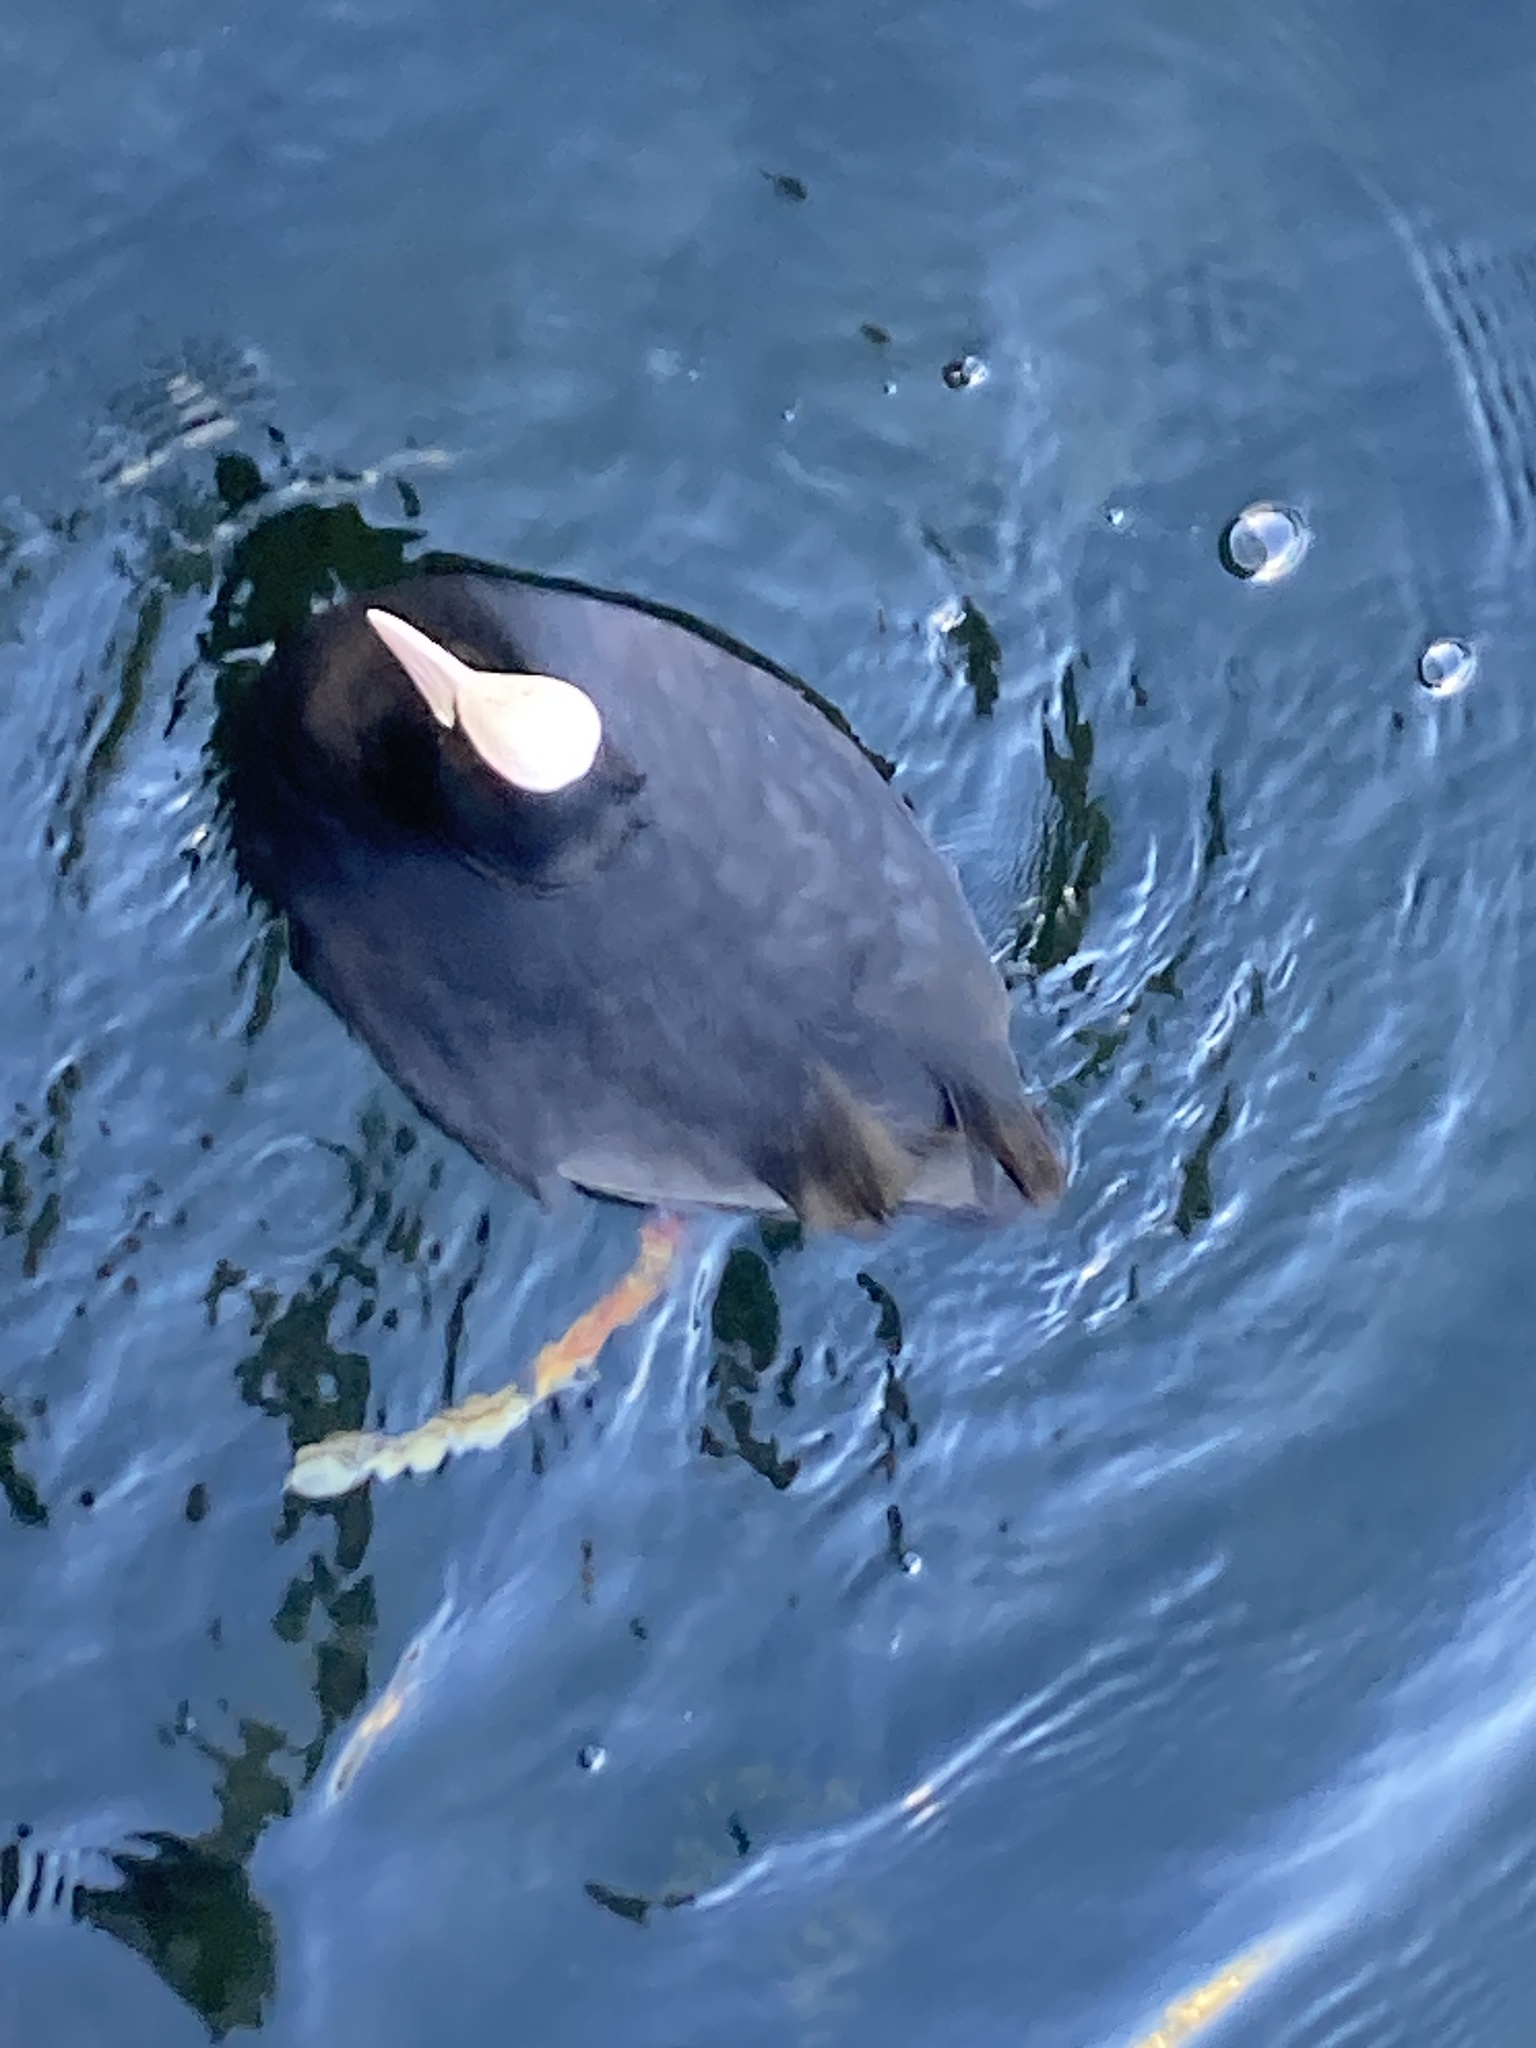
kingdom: Animalia
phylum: Chordata
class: Aves
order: Gruiformes
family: Rallidae
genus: Fulica
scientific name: Fulica atra
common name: Eurasian coot
